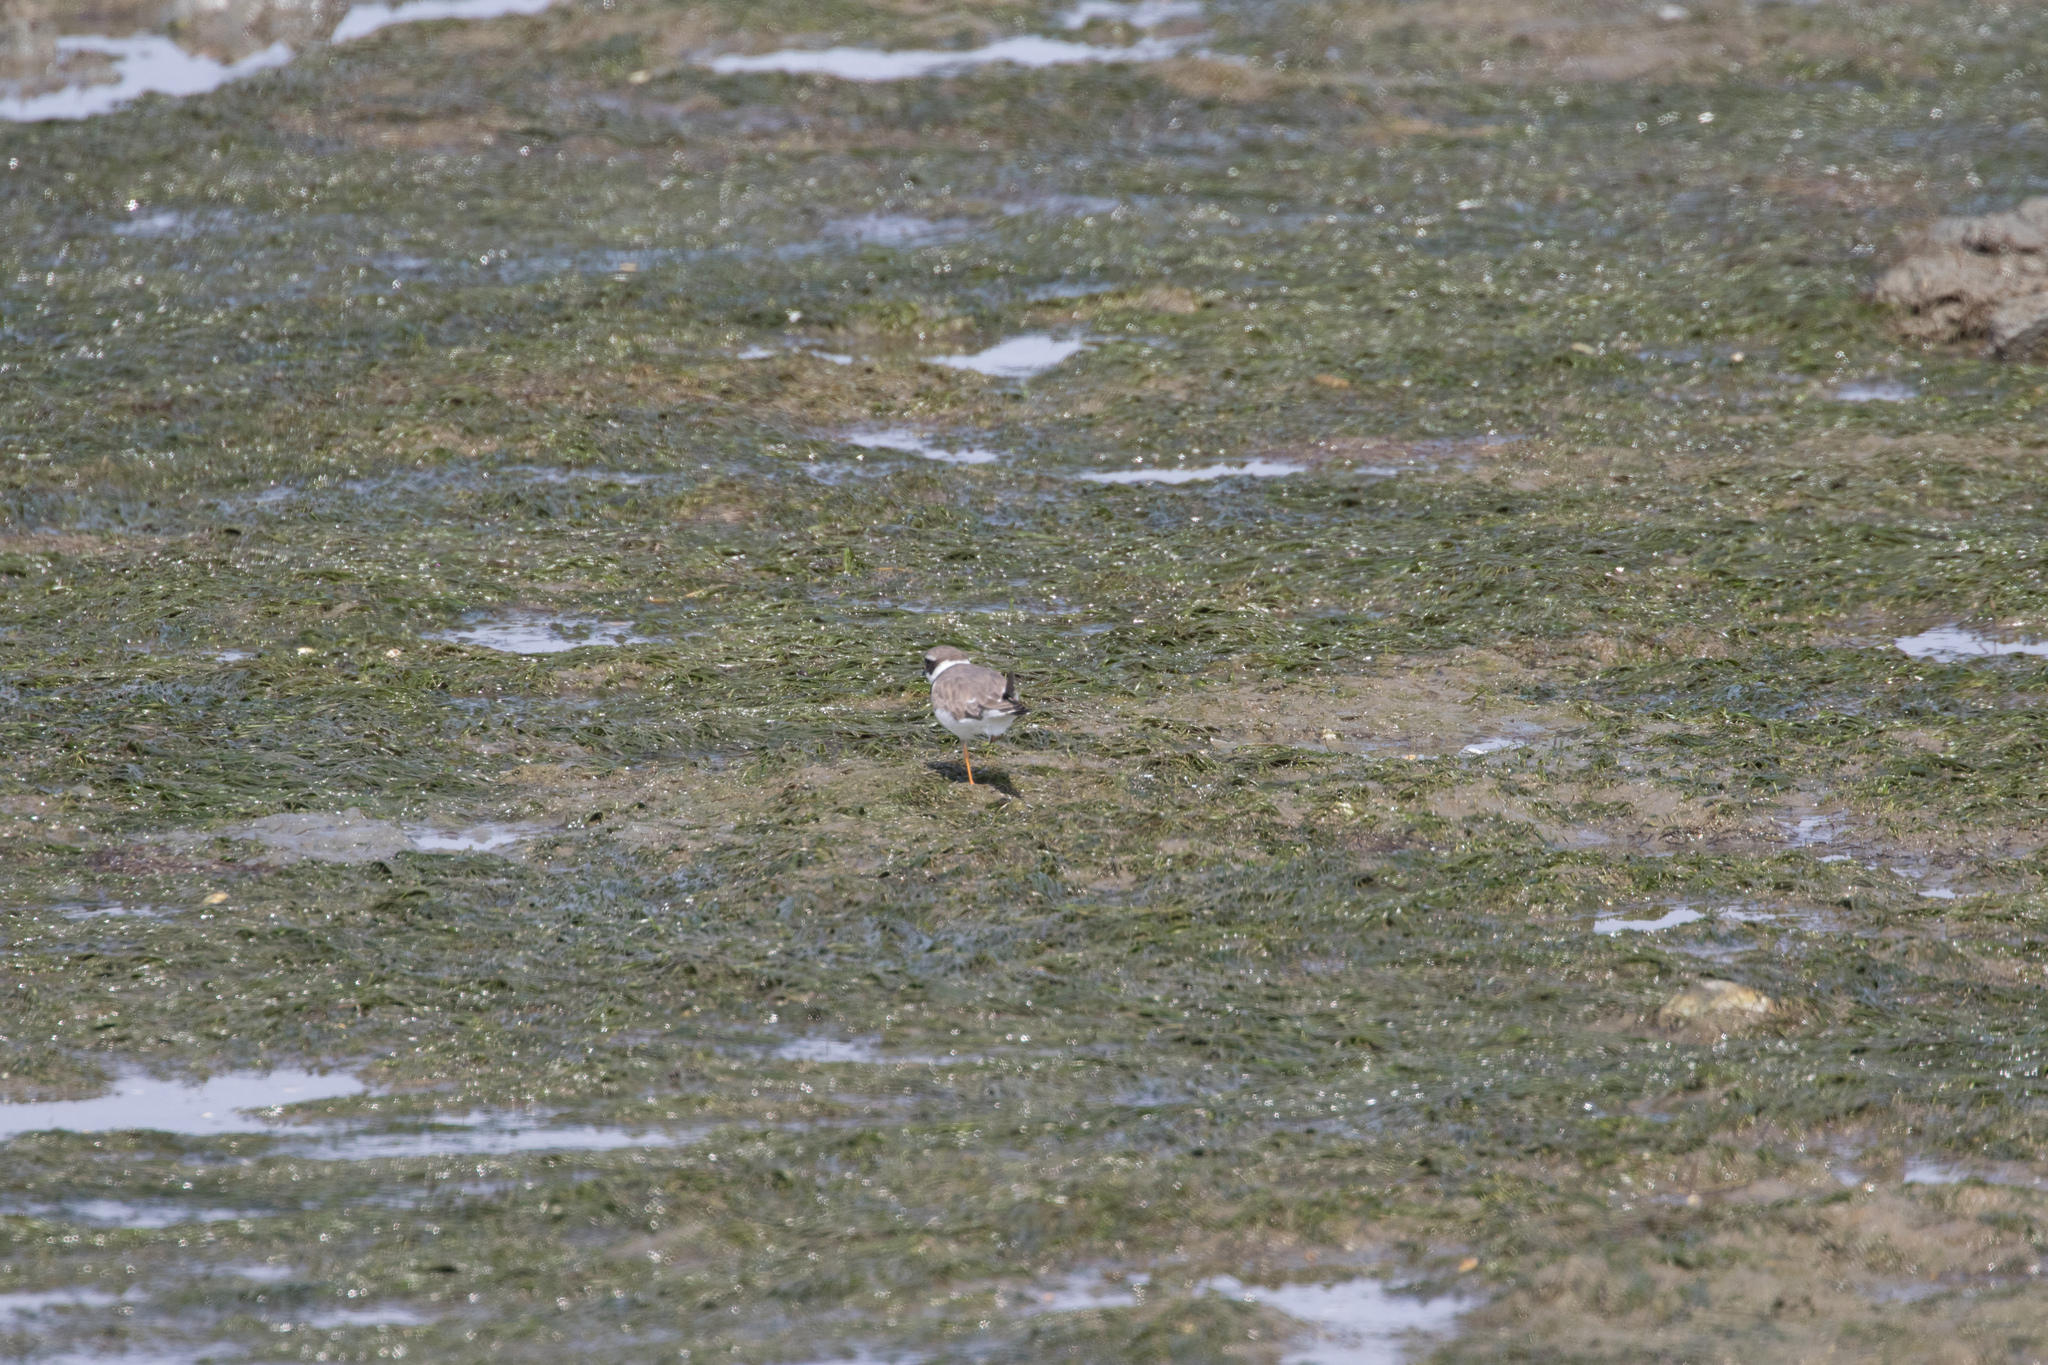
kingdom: Animalia
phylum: Chordata
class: Aves
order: Charadriiformes
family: Charadriidae
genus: Charadrius
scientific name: Charadrius hiaticula
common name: Common ringed plover
